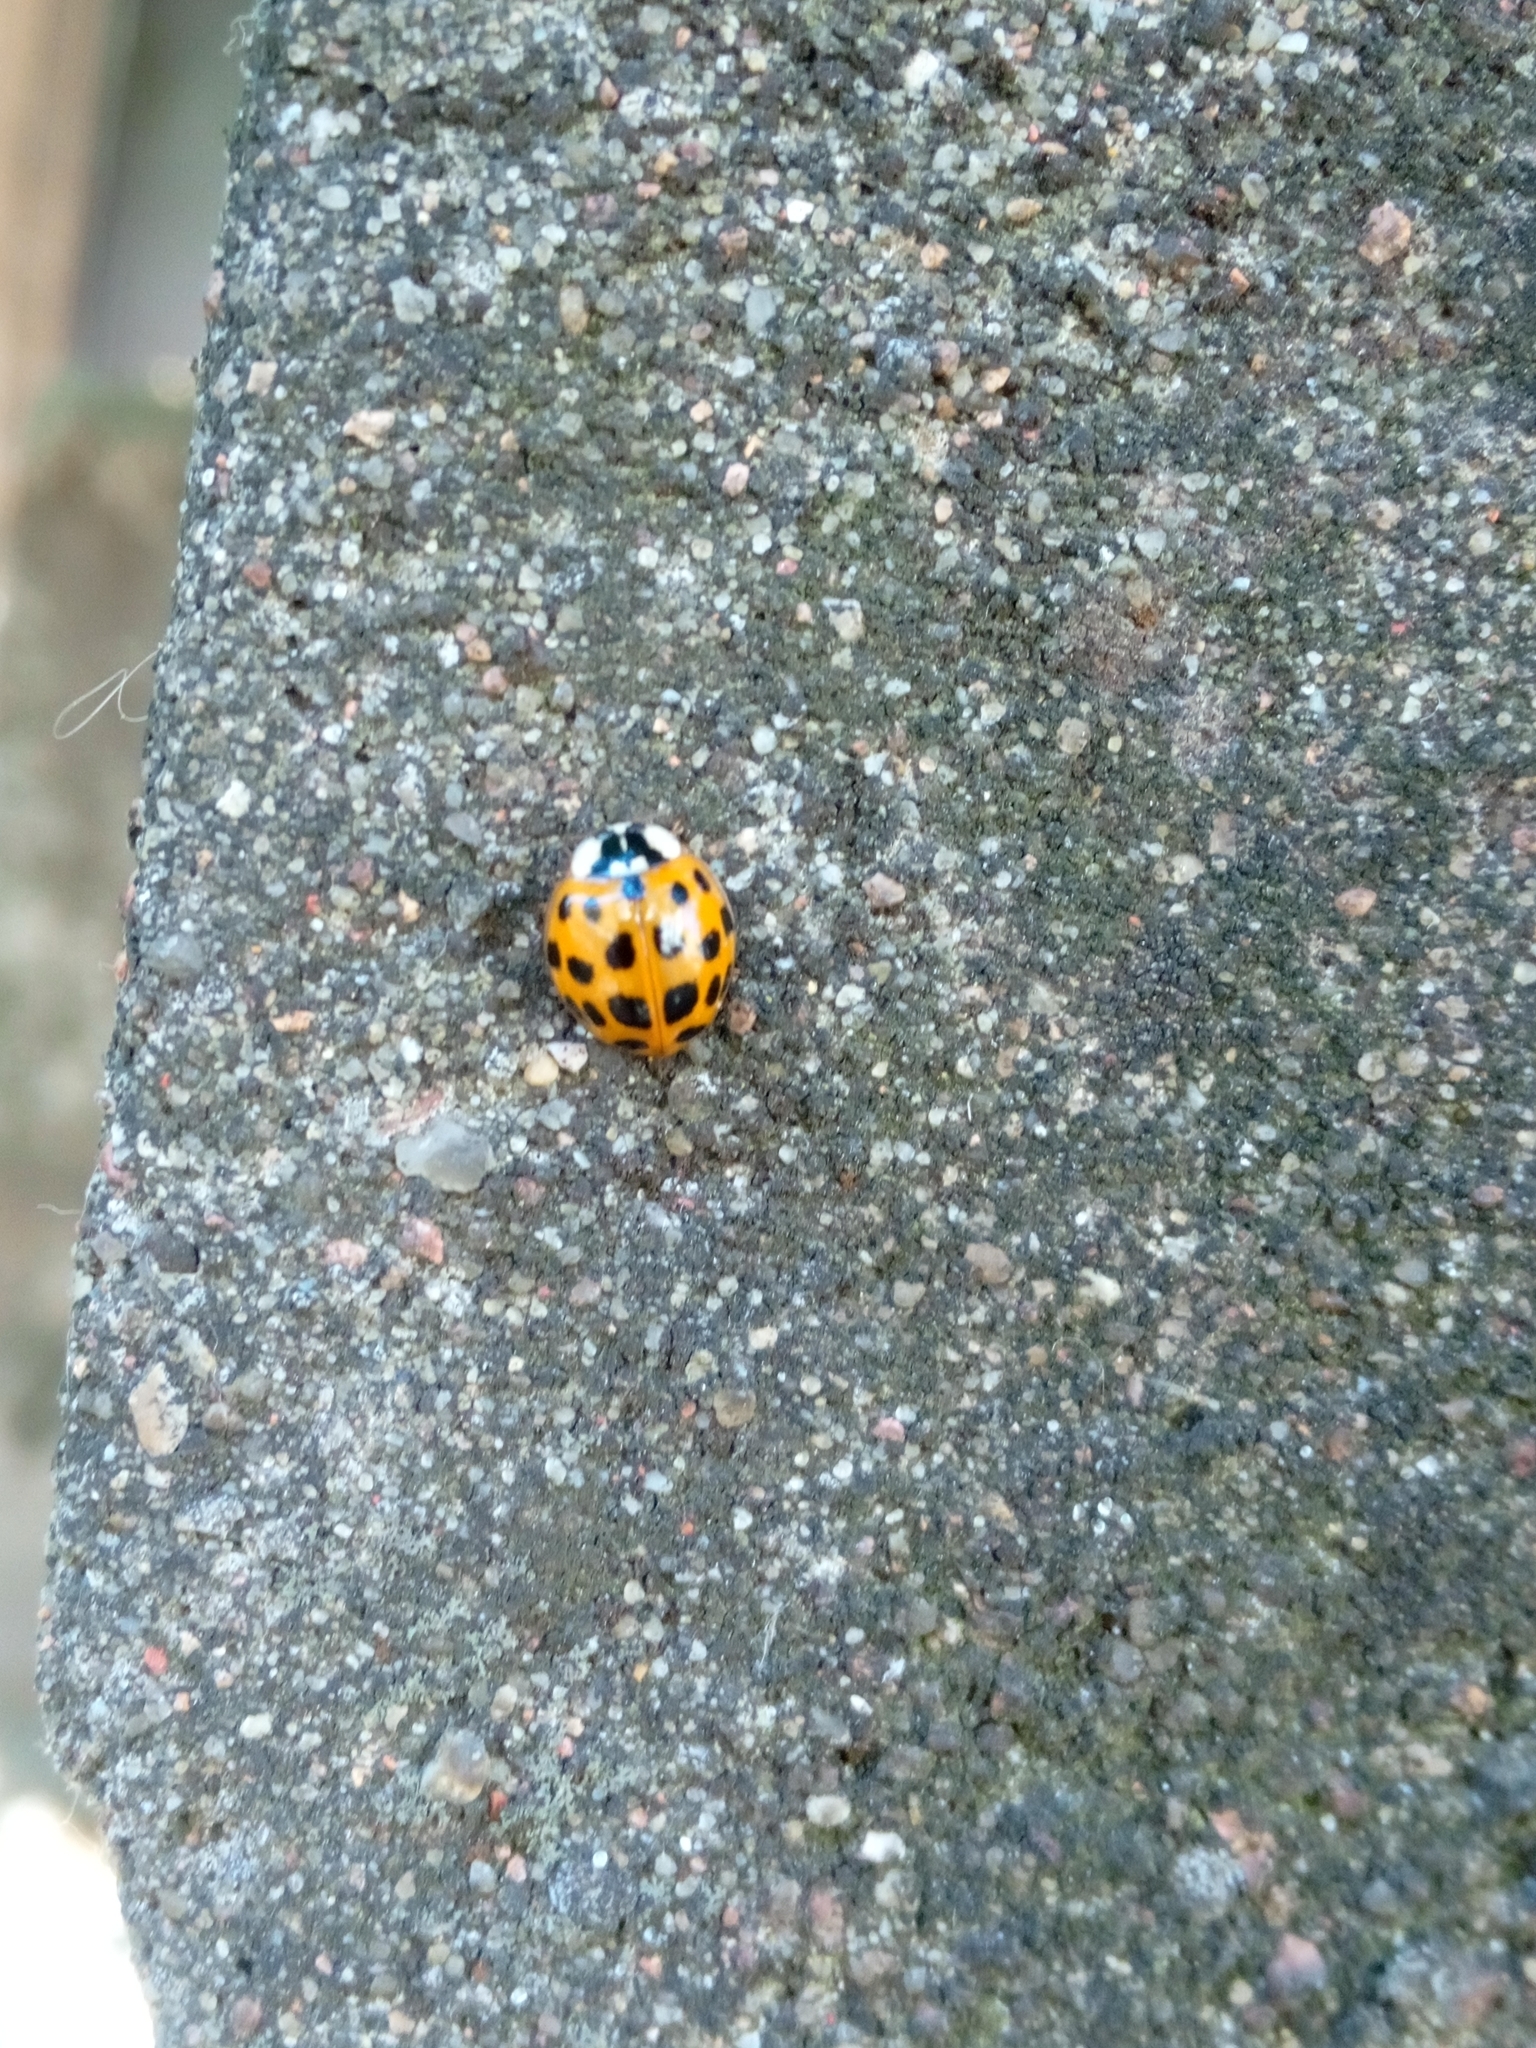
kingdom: Animalia
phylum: Arthropoda
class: Insecta
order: Coleoptera
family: Coccinellidae
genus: Harmonia
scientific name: Harmonia axyridis
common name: Harlequin ladybird
